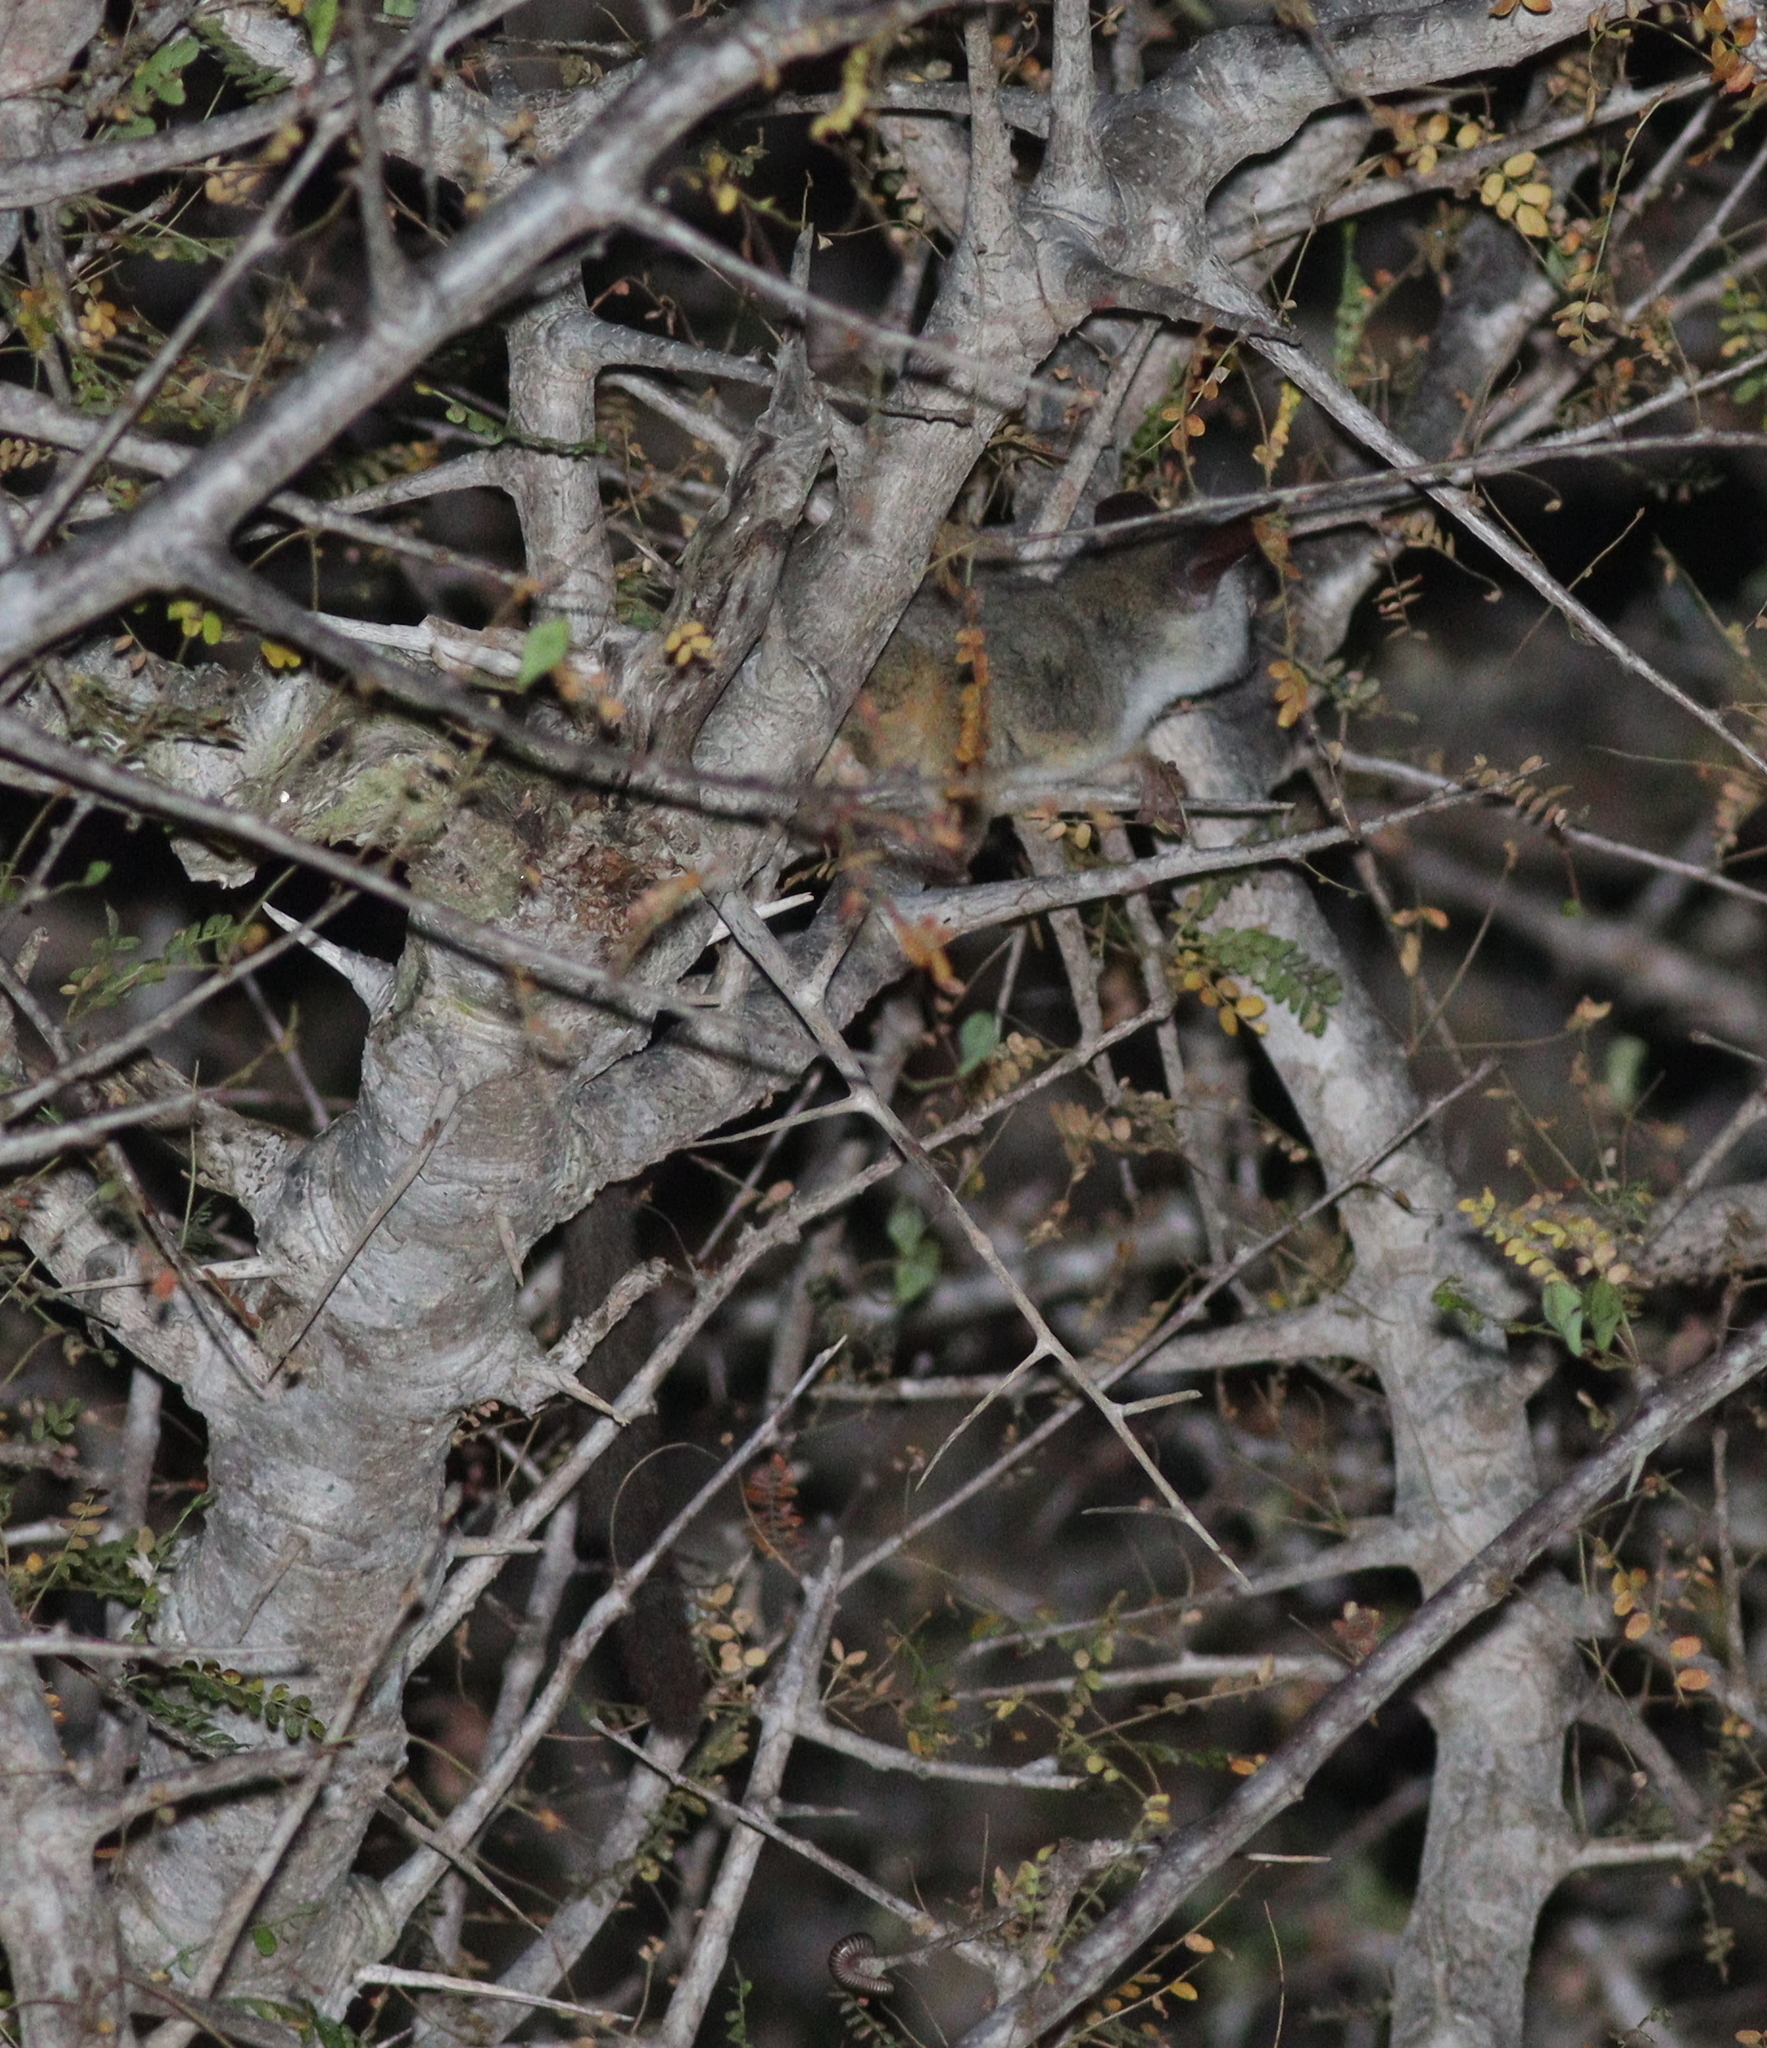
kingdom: Animalia
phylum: Chordata
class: Mammalia
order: Primates
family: Galagidae
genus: Galago
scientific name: Galago senegalensis
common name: Senegal bushbaby
